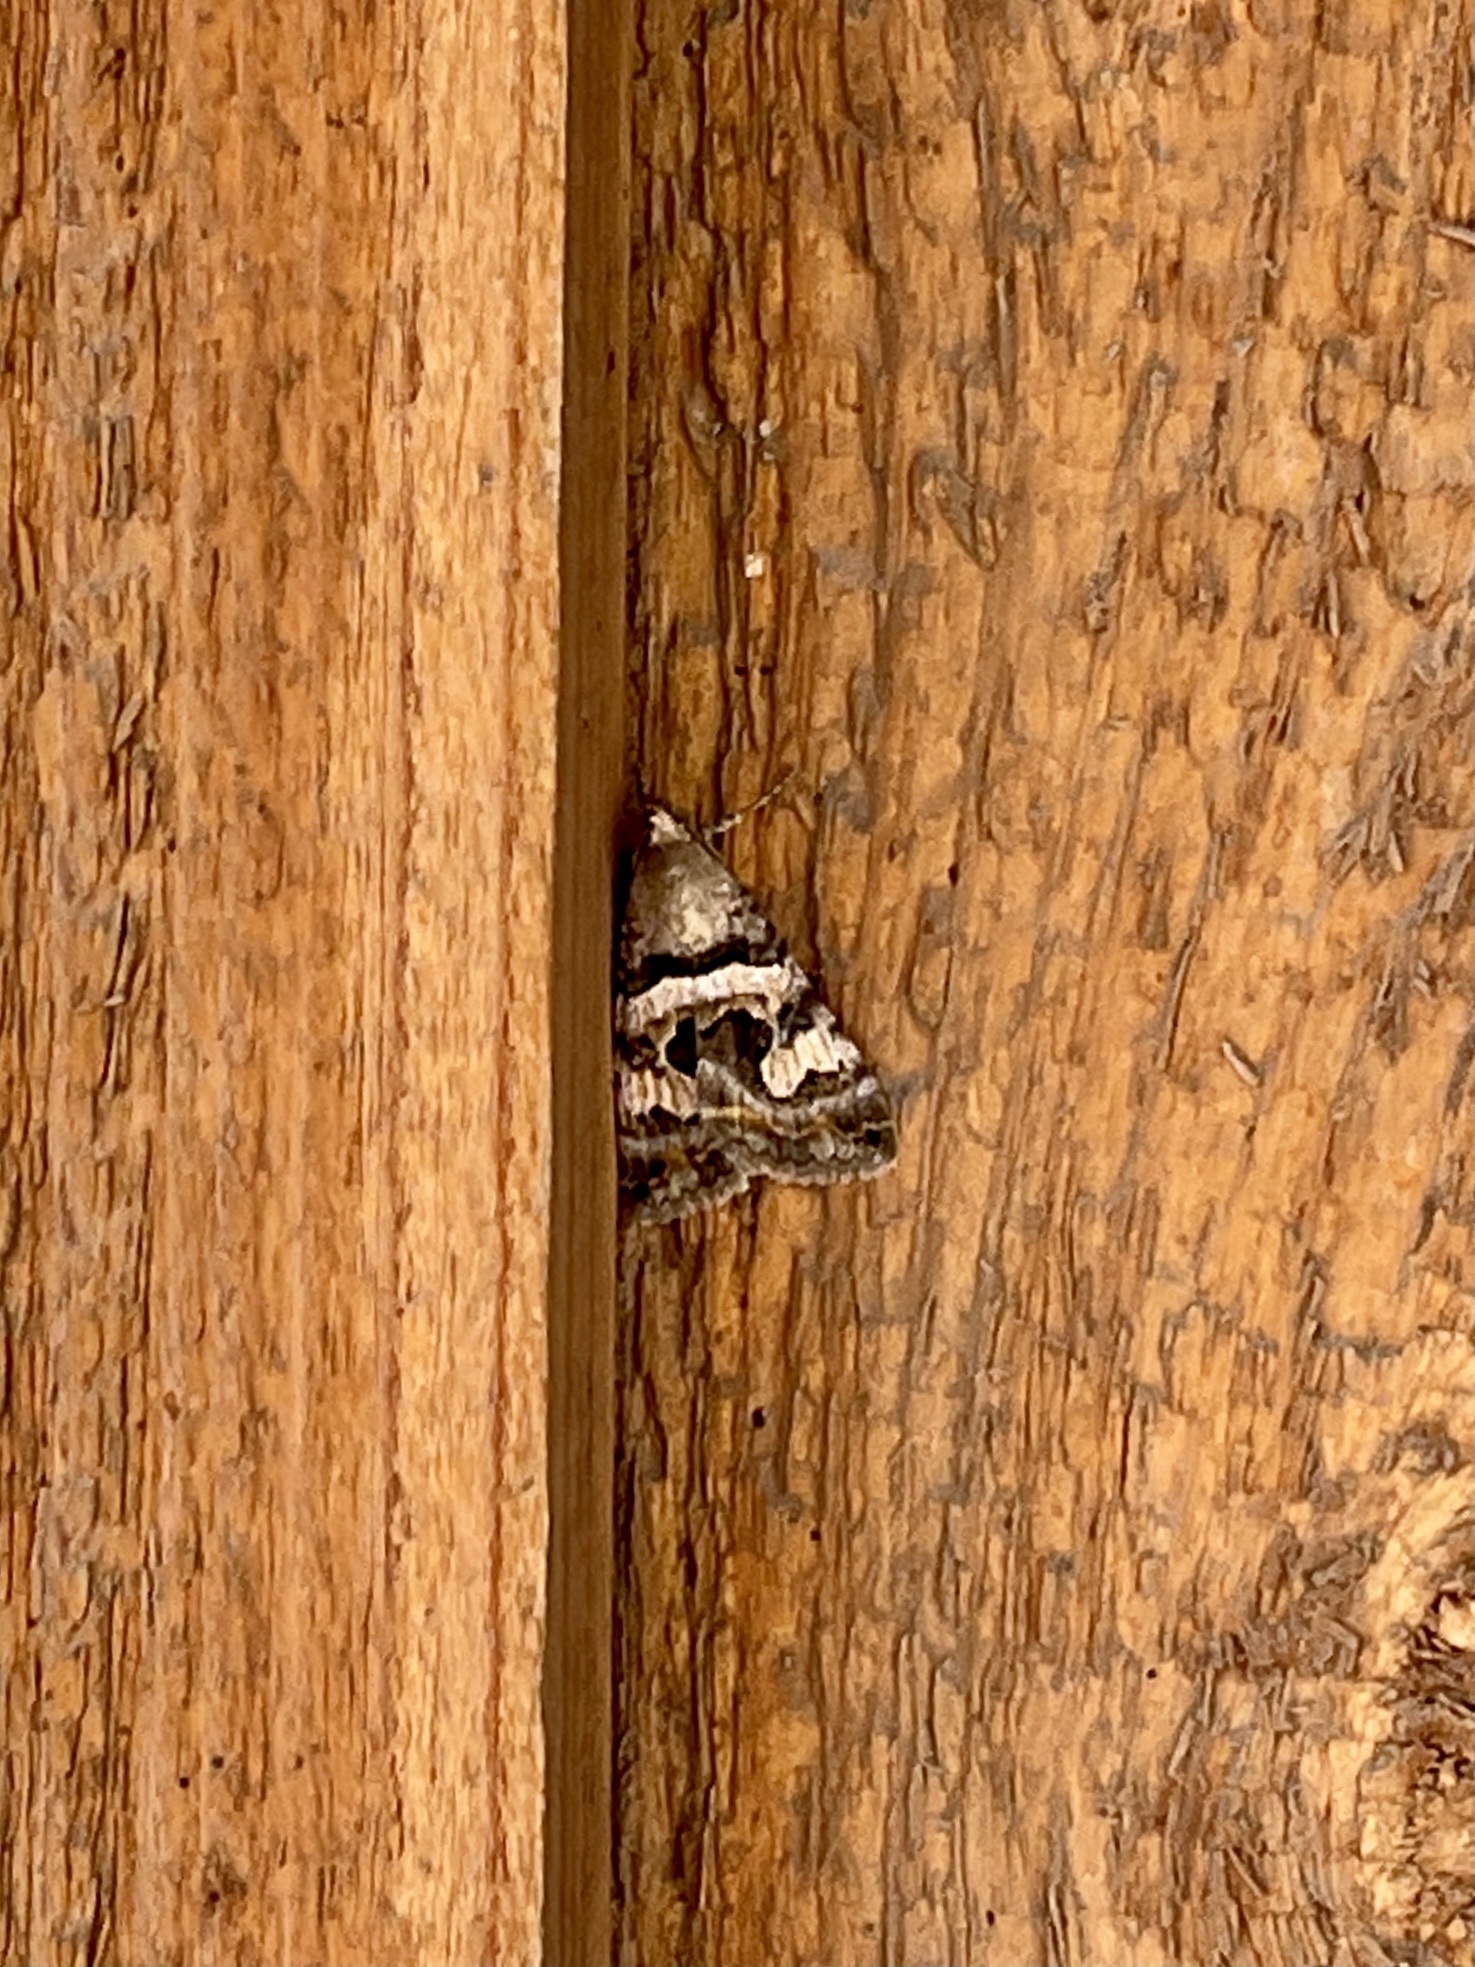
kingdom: Animalia
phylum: Arthropoda
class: Insecta
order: Lepidoptera
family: Erebidae
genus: Bulia
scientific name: Bulia deducta
